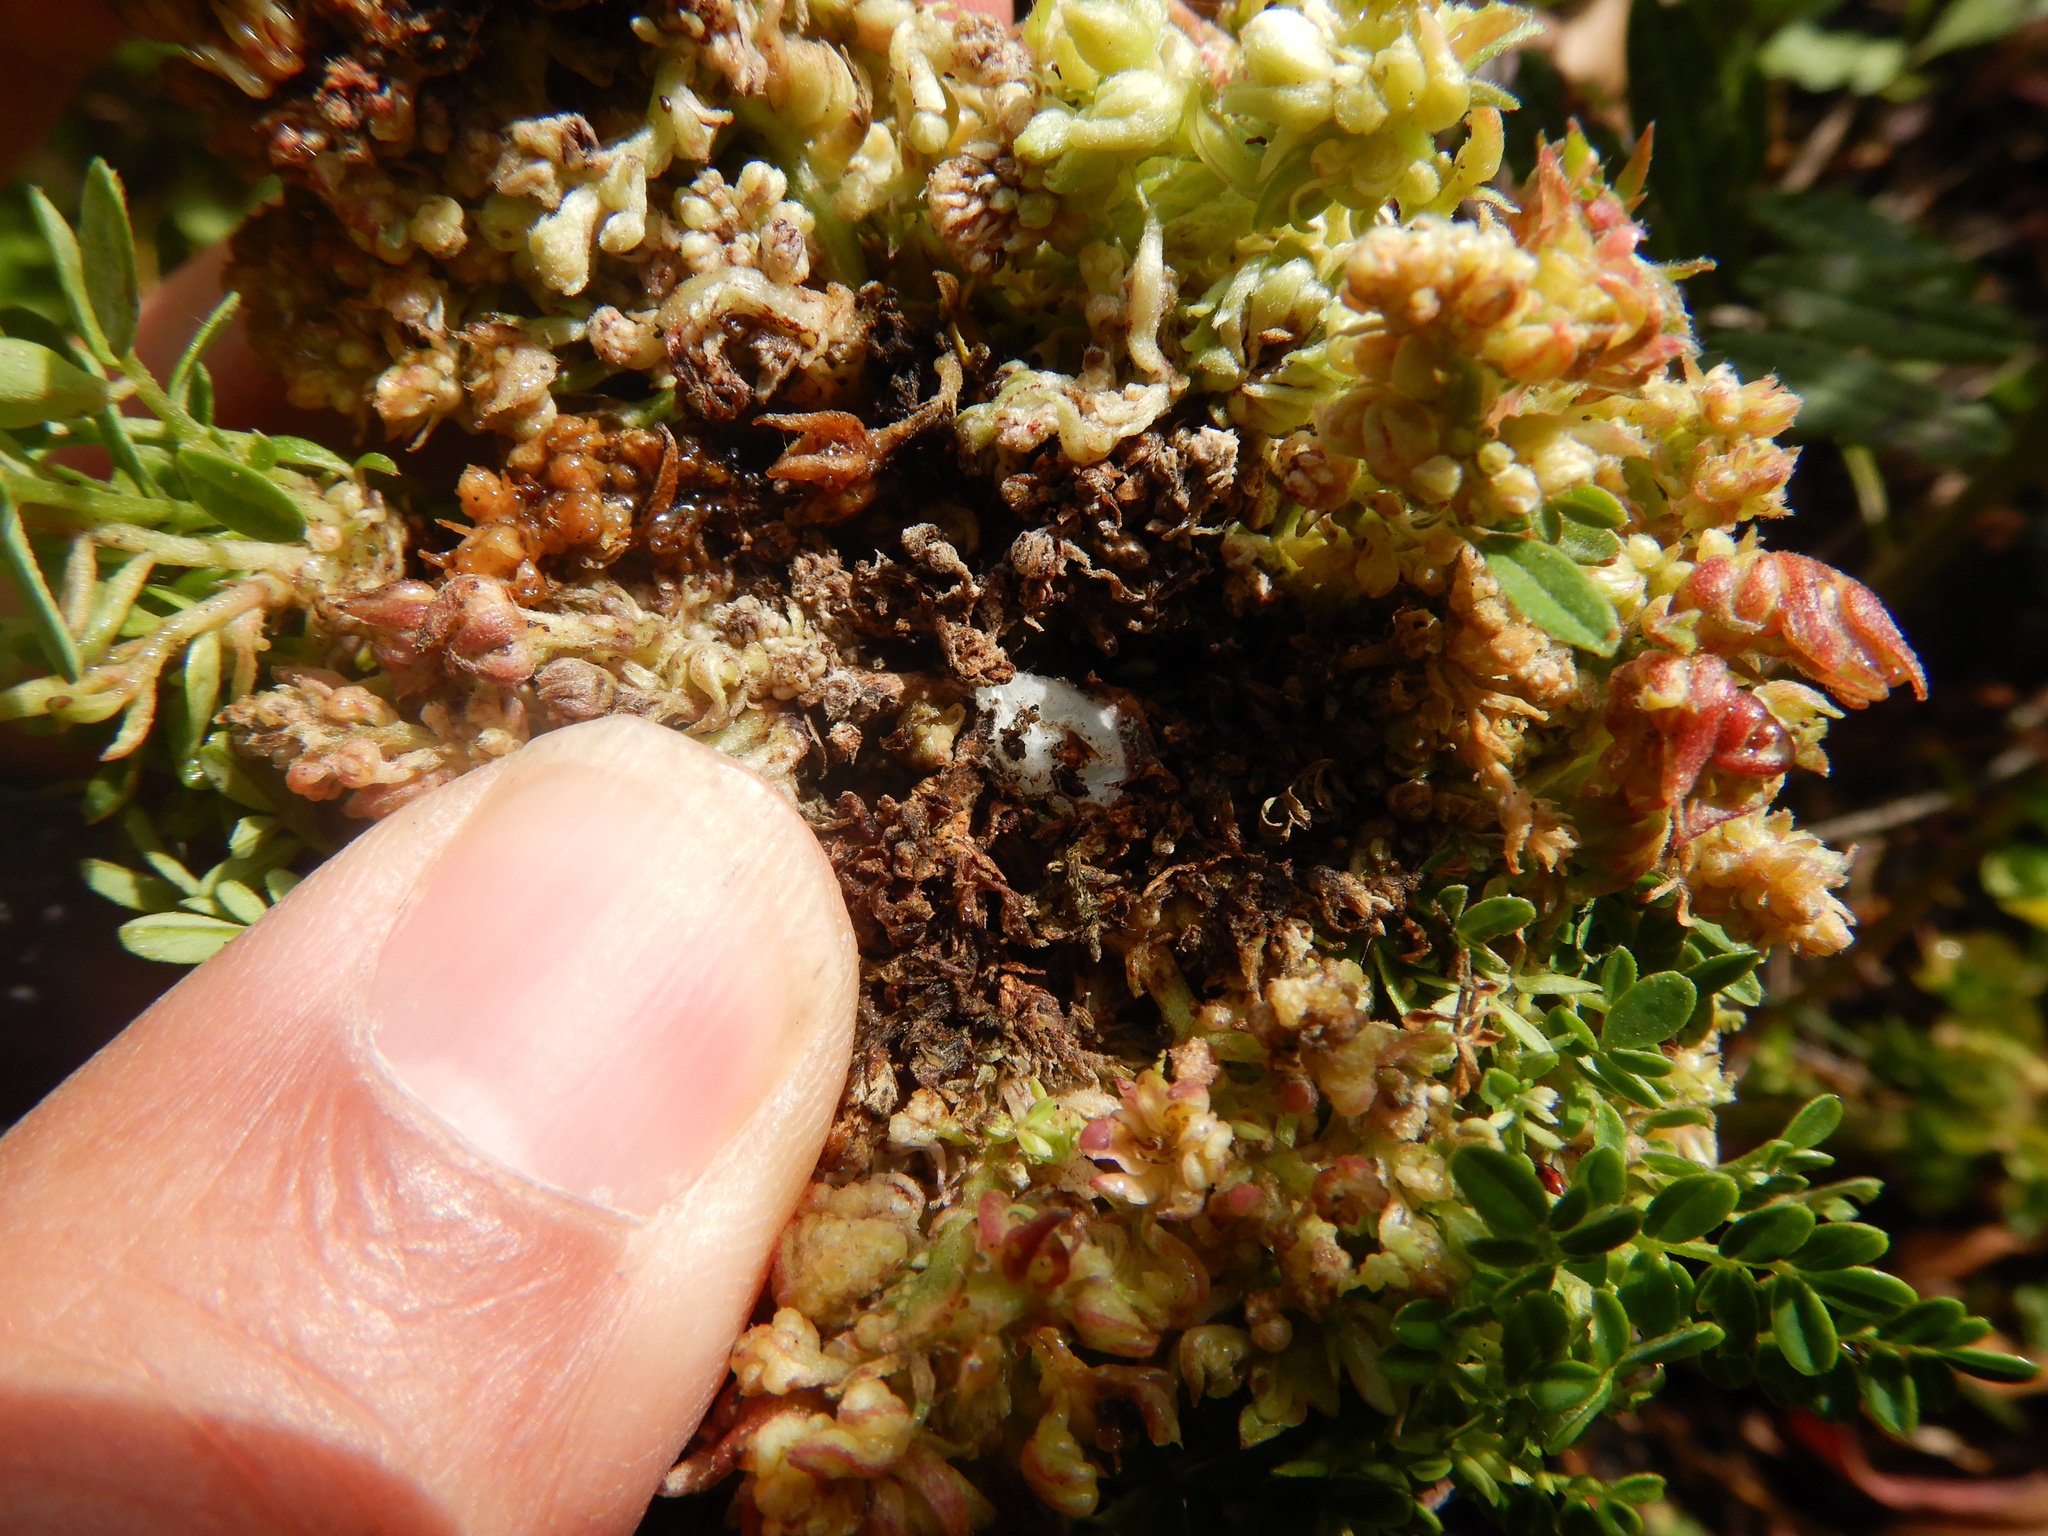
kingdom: Animalia
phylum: Arthropoda
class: Arachnida
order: Trombidiformes
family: Eriophyidae
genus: Aceria
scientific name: Aceria clianthi
